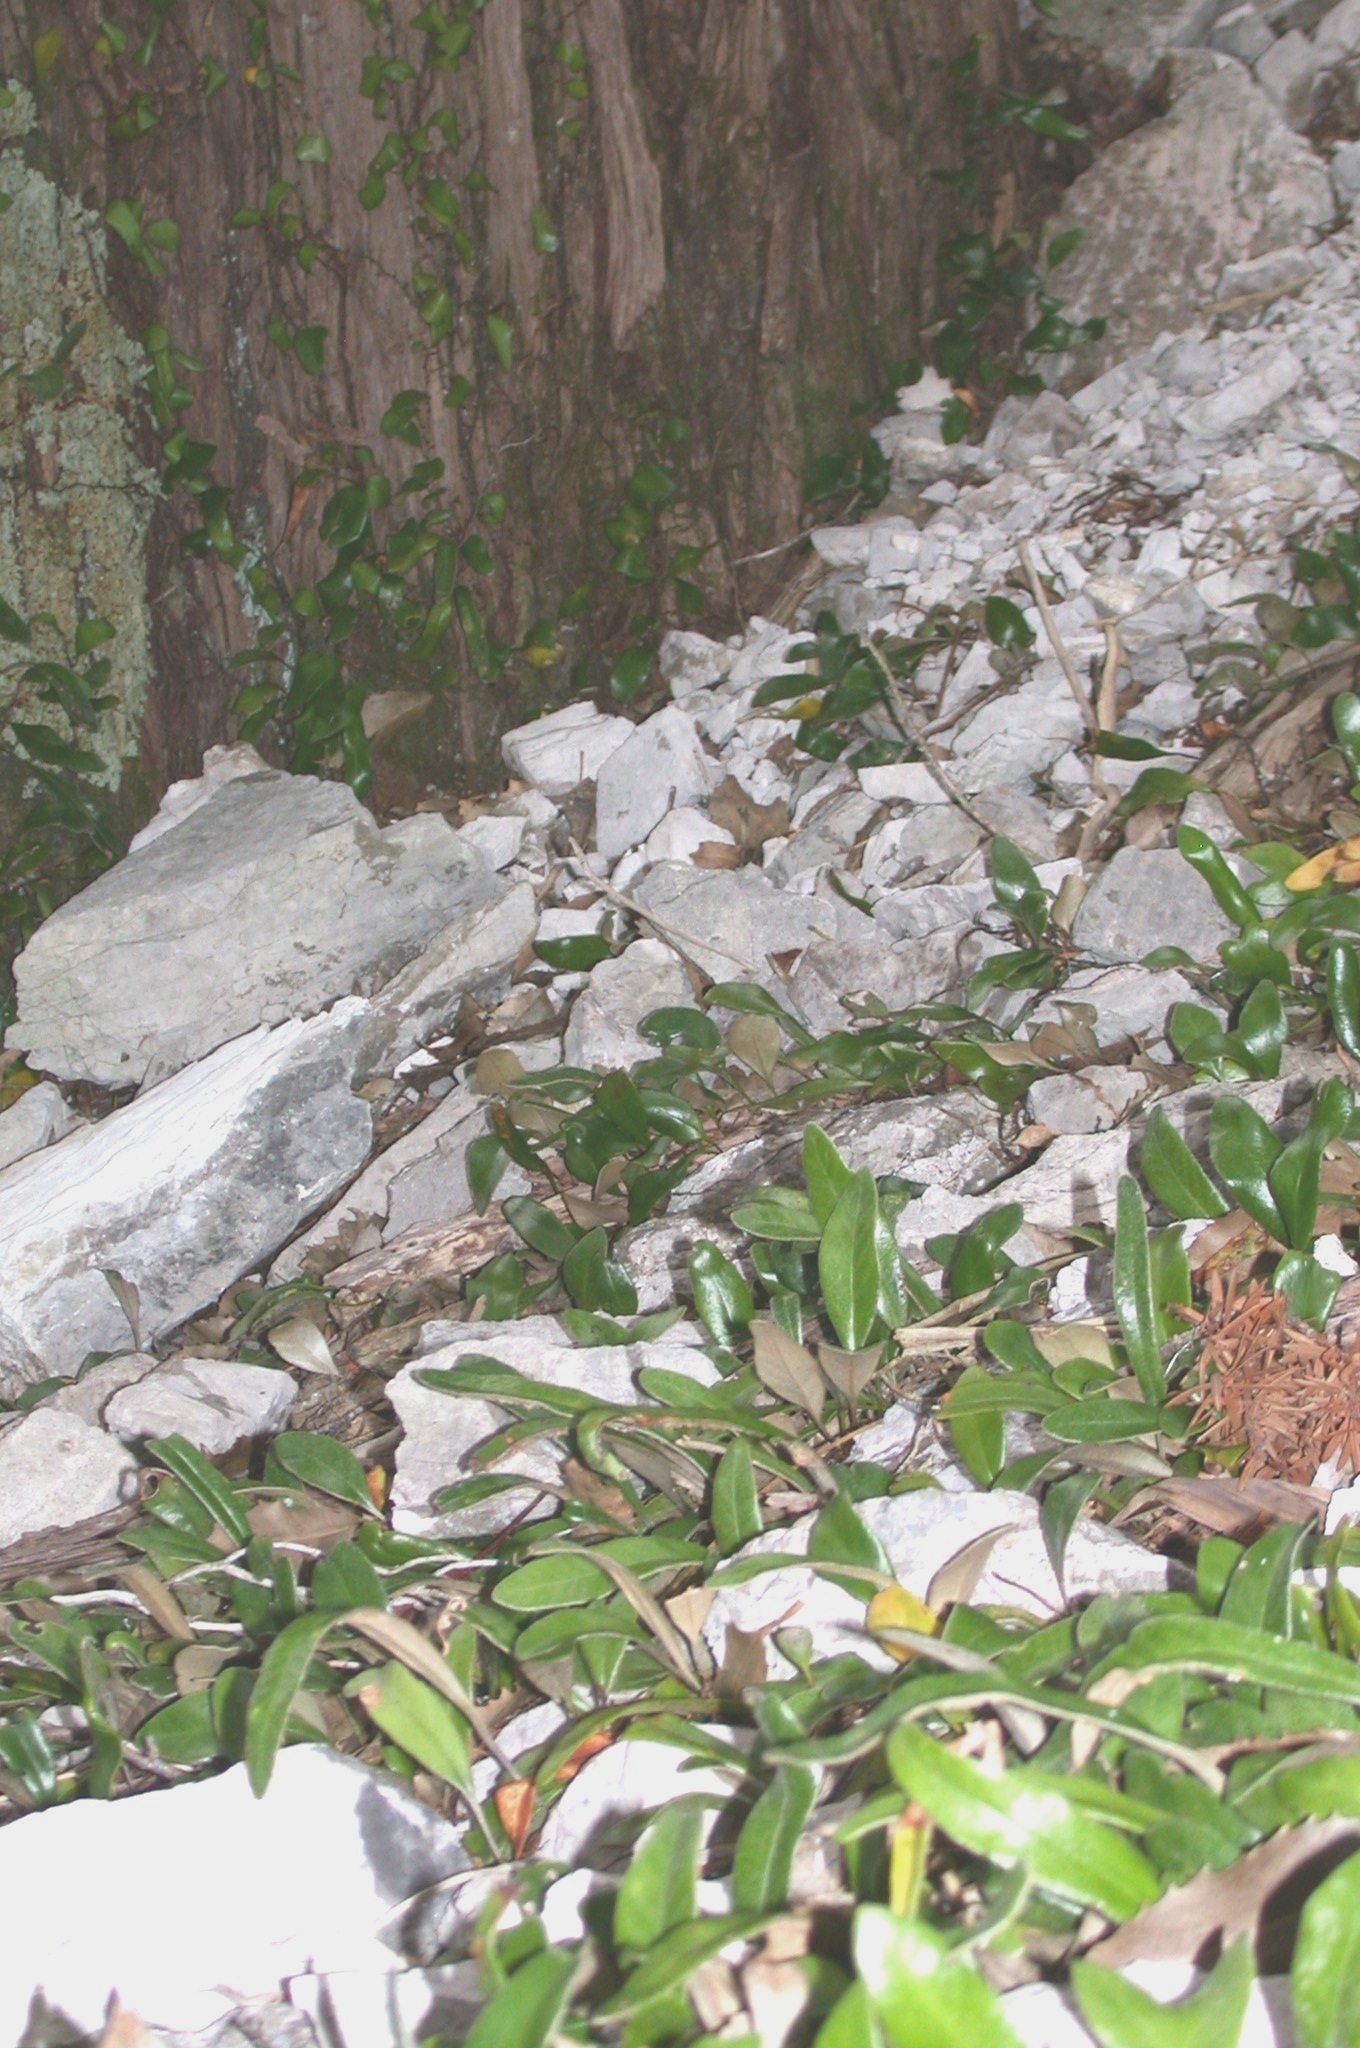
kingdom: Plantae
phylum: Tracheophyta
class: Polypodiopsida
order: Polypodiales
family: Polypodiaceae
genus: Pyrrosia
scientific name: Pyrrosia eleagnifolia
